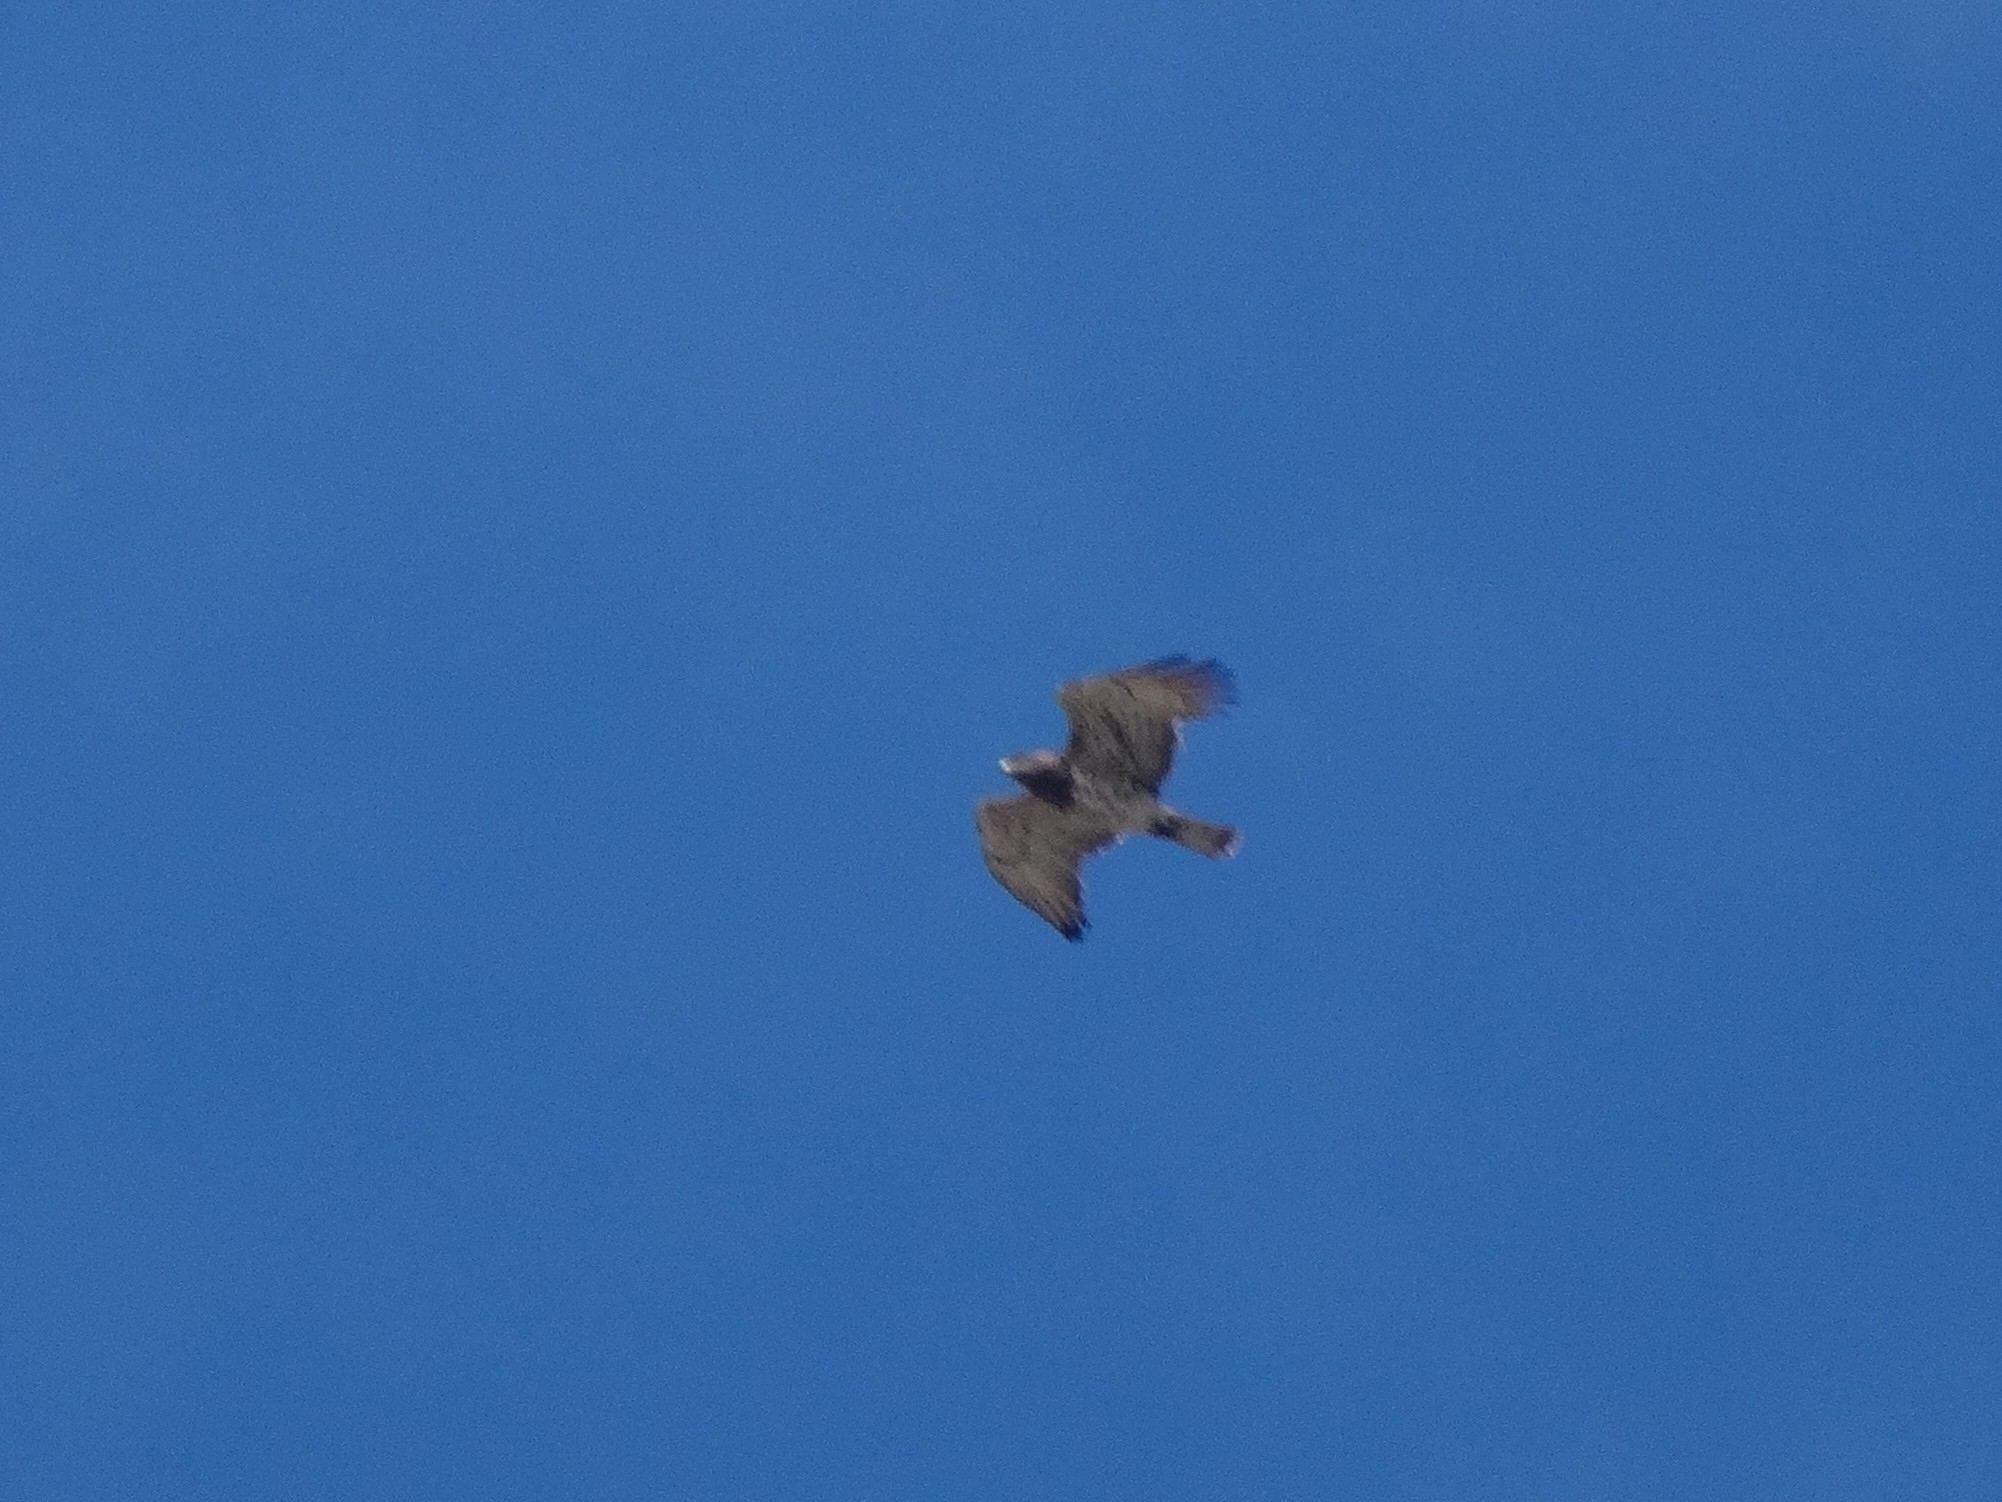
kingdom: Animalia
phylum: Chordata
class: Aves
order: Accipitriformes
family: Accipitridae
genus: Circaetus
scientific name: Circaetus gallicus
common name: Short-toed snake eagle
